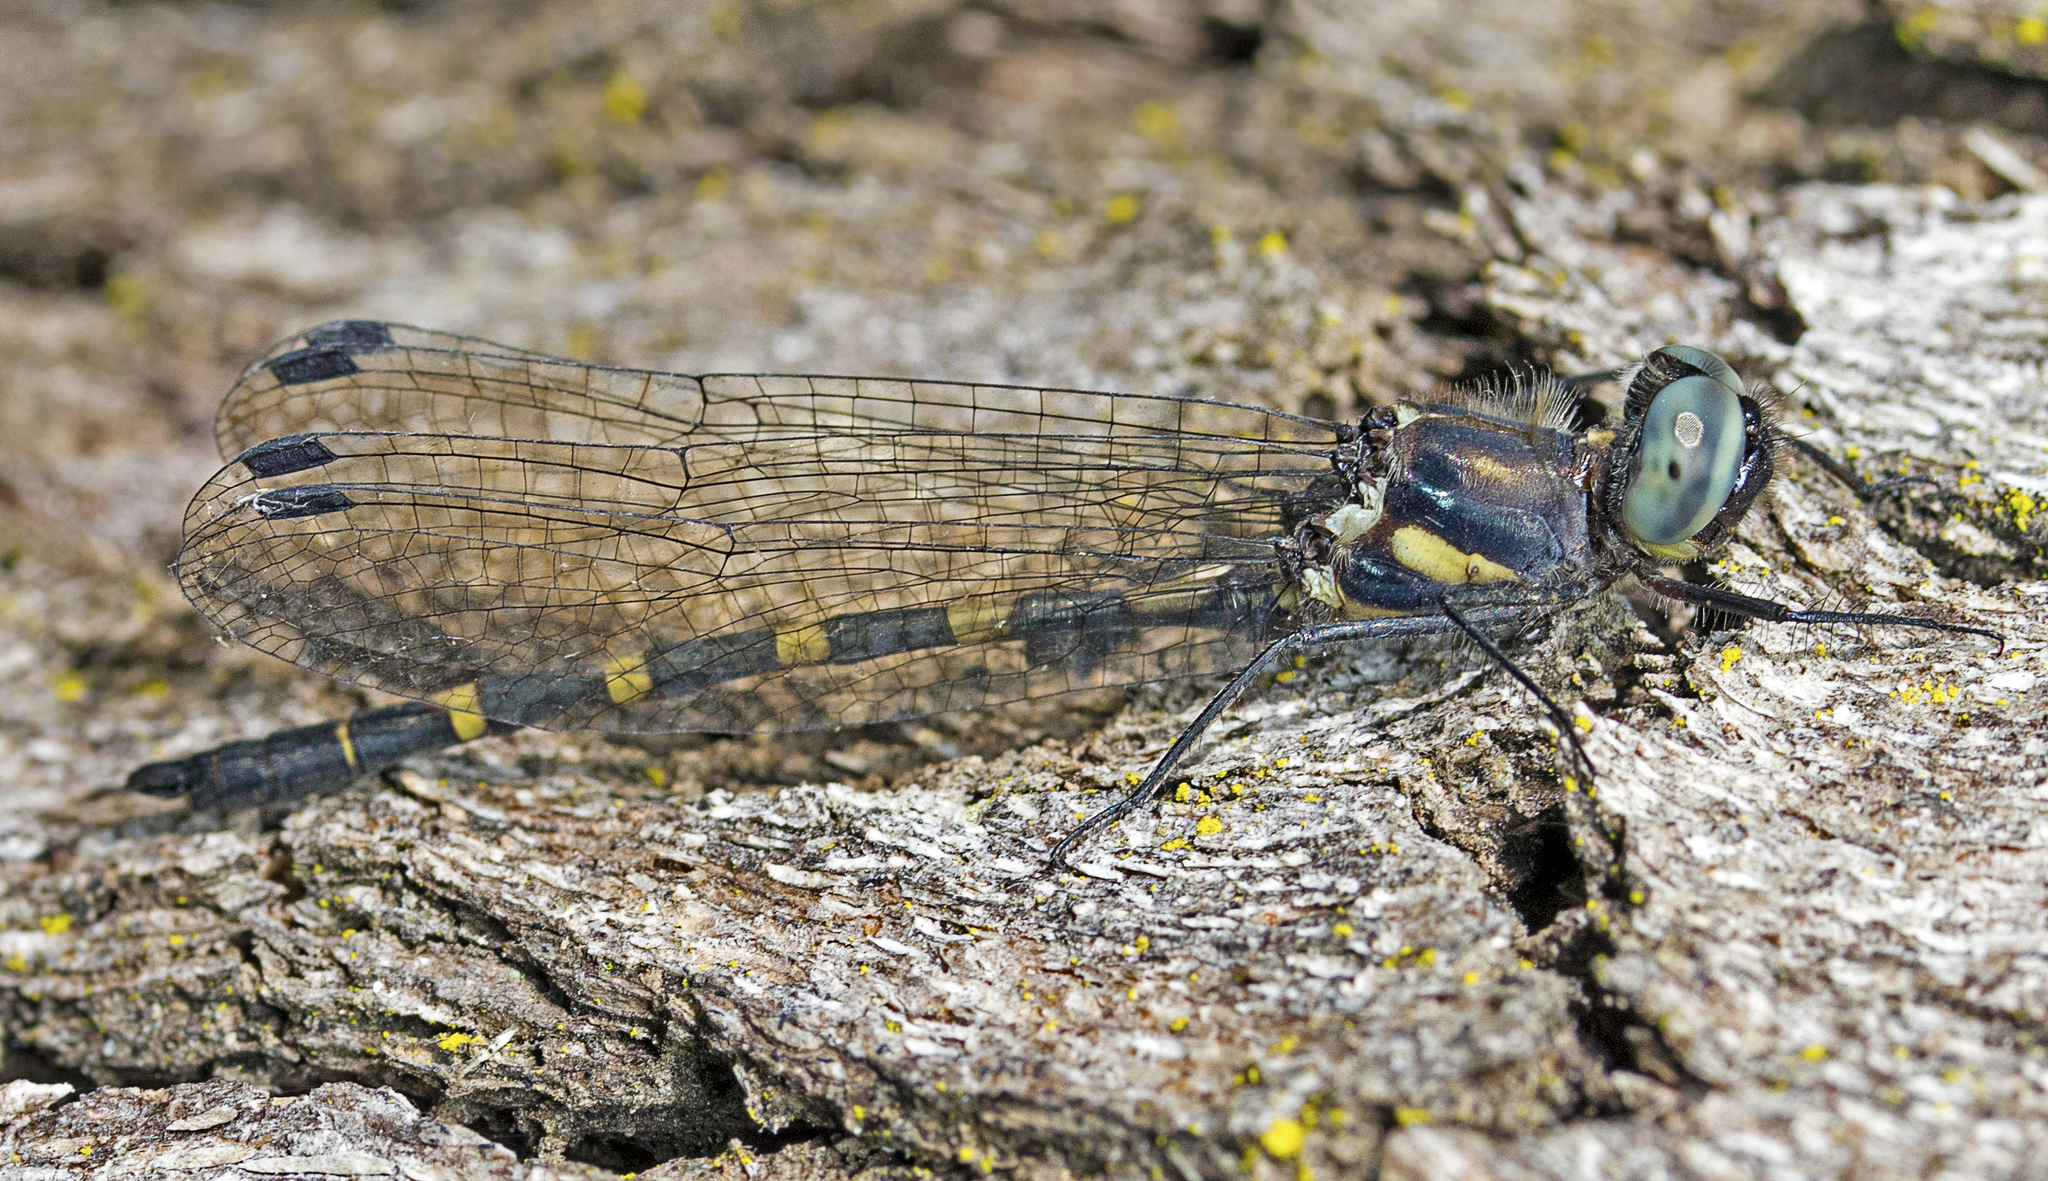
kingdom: Animalia
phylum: Arthropoda
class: Insecta
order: Odonata
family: Corduliidae
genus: Cordulephya
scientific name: Cordulephya pygmaea
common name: Common shutwing
